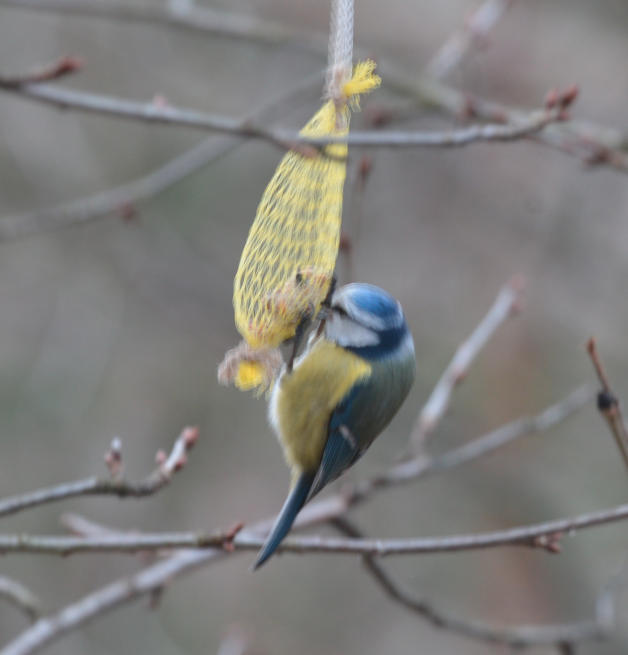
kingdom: Animalia
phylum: Chordata
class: Aves
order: Passeriformes
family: Paridae
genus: Cyanistes
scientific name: Cyanistes caeruleus
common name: Eurasian blue tit
